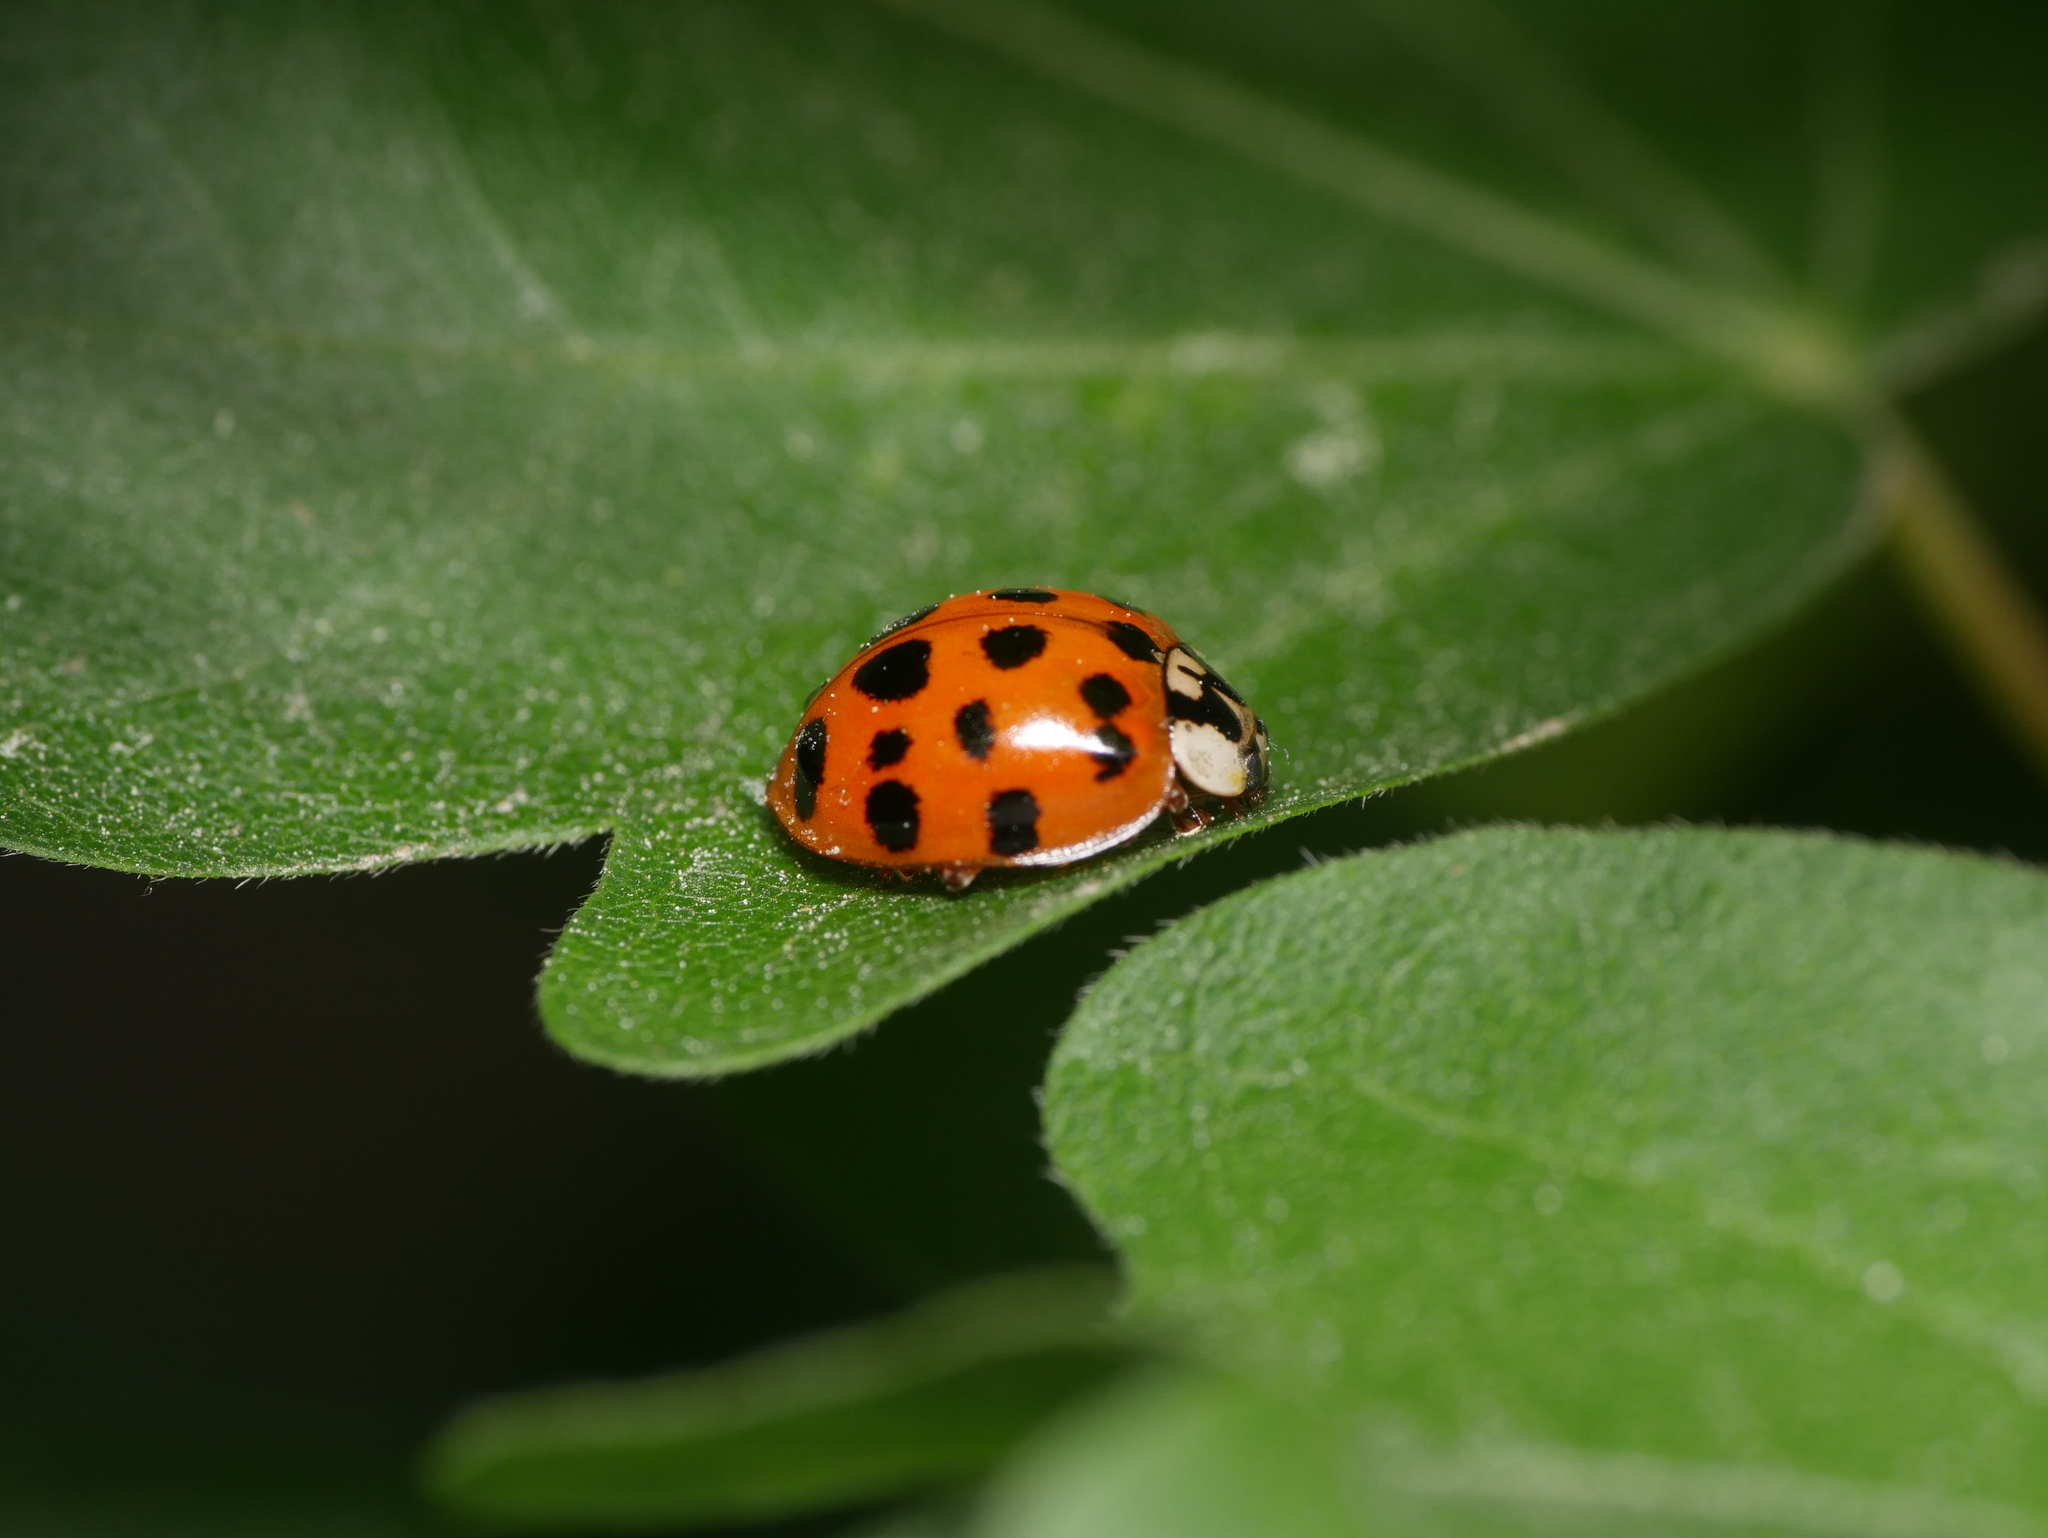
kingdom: Animalia
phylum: Arthropoda
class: Insecta
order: Coleoptera
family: Coccinellidae
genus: Harmonia
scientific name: Harmonia axyridis
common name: Harlequin ladybird
